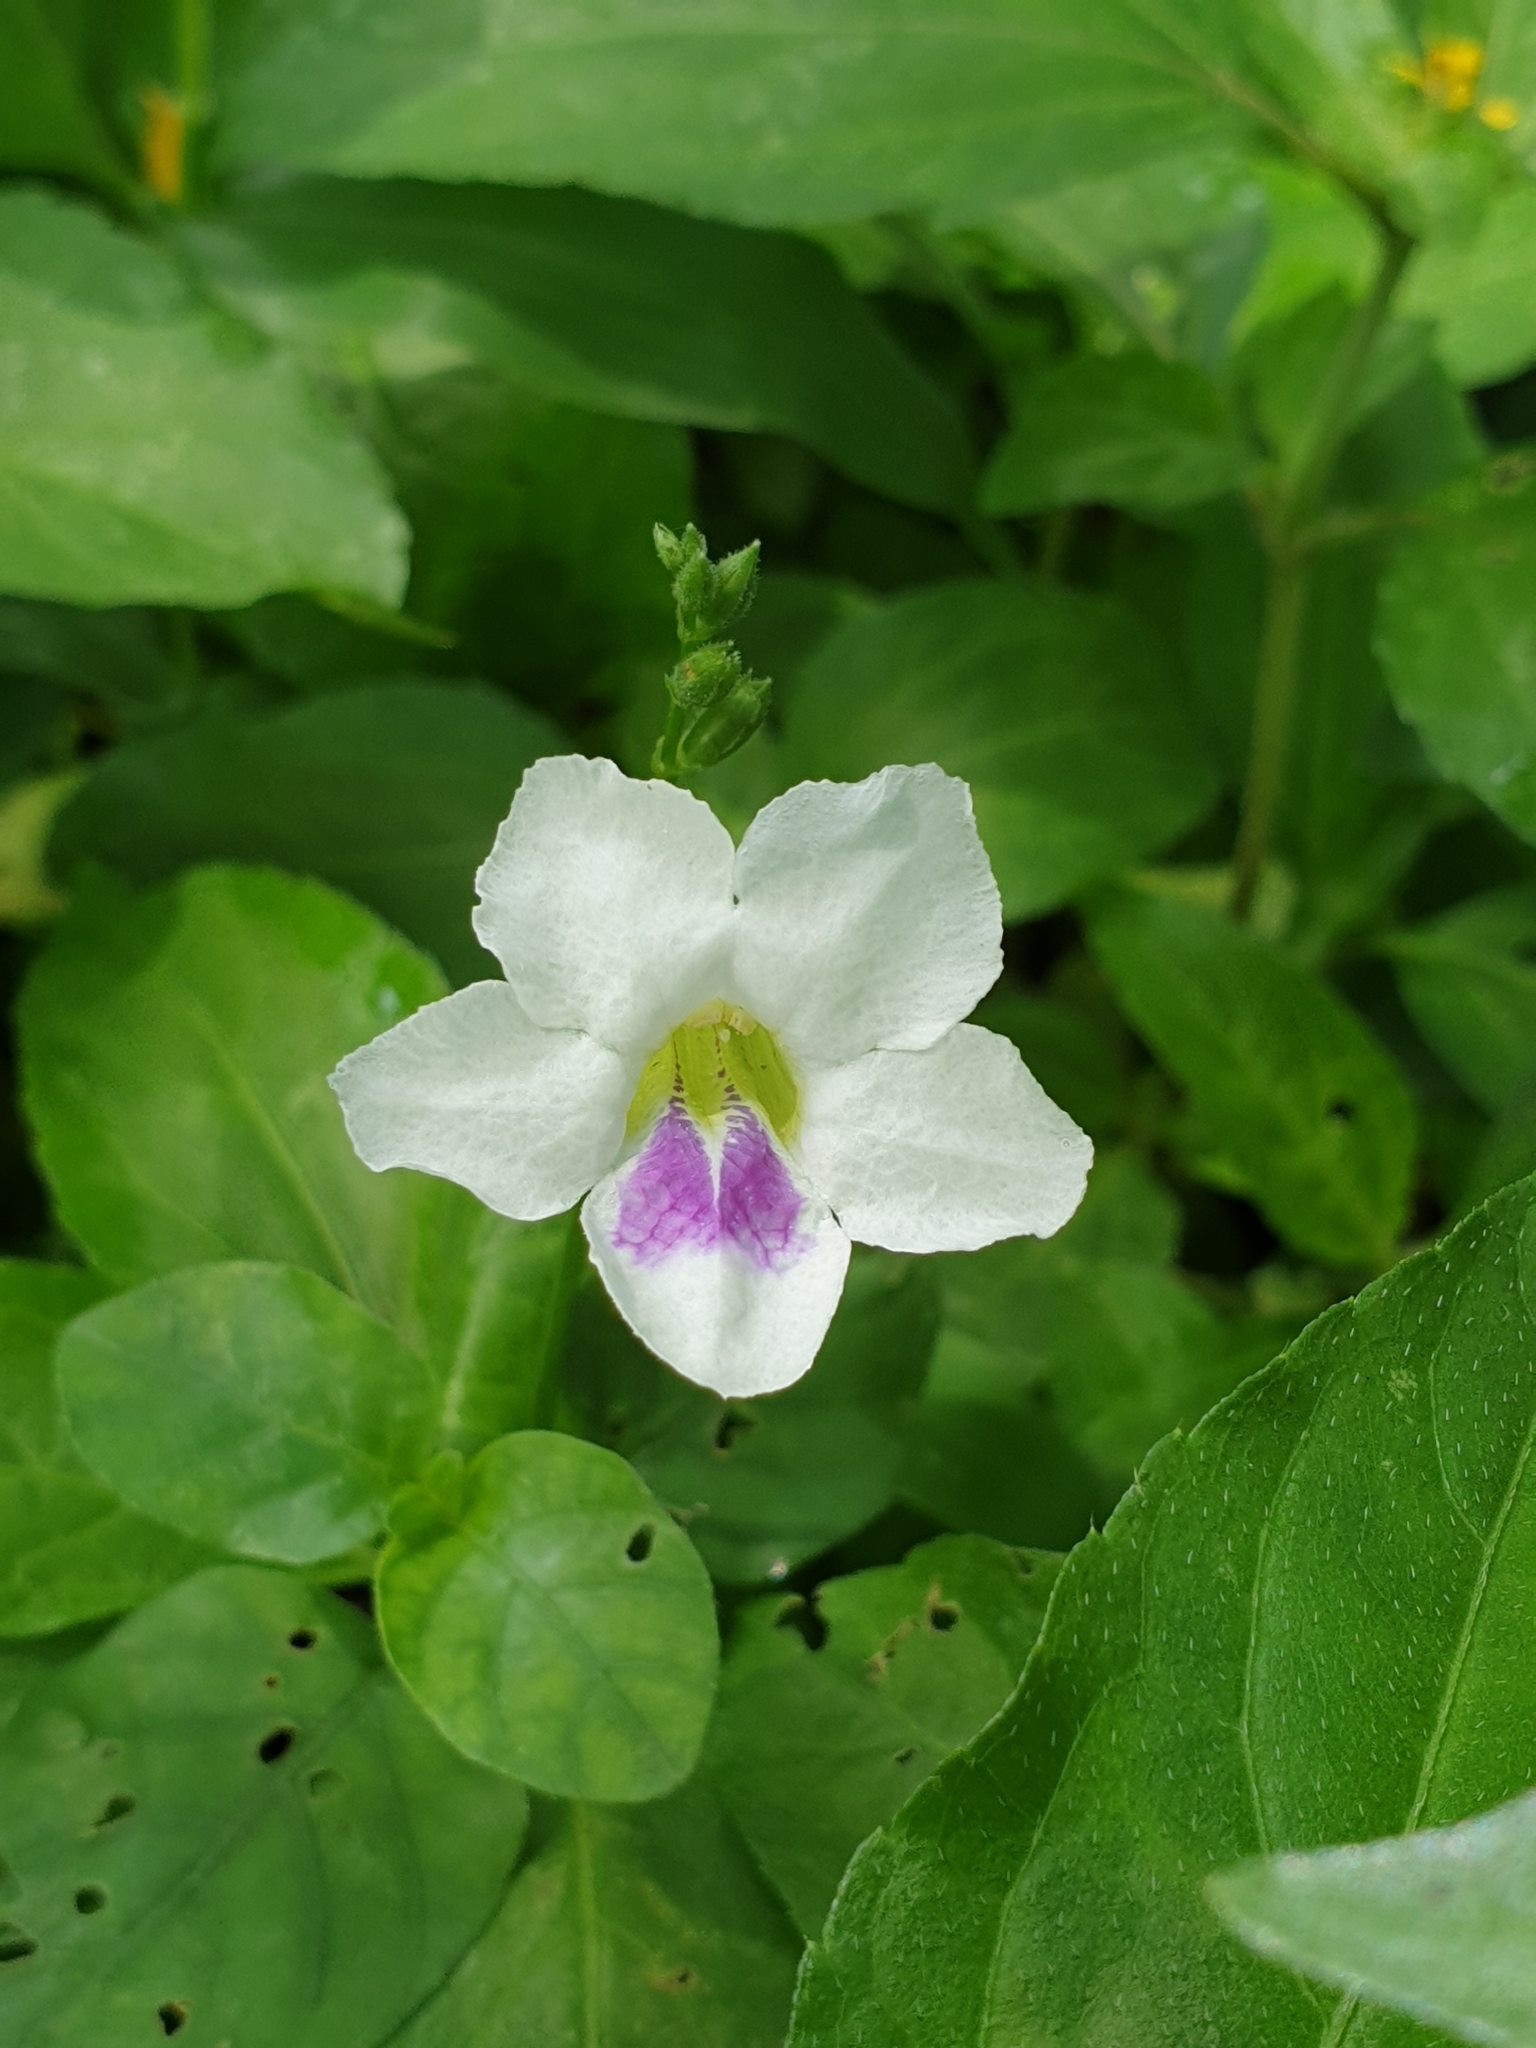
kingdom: Plantae
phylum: Tracheophyta
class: Magnoliopsida
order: Lamiales
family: Acanthaceae
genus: Asystasia
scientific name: Asystasia intrusa
